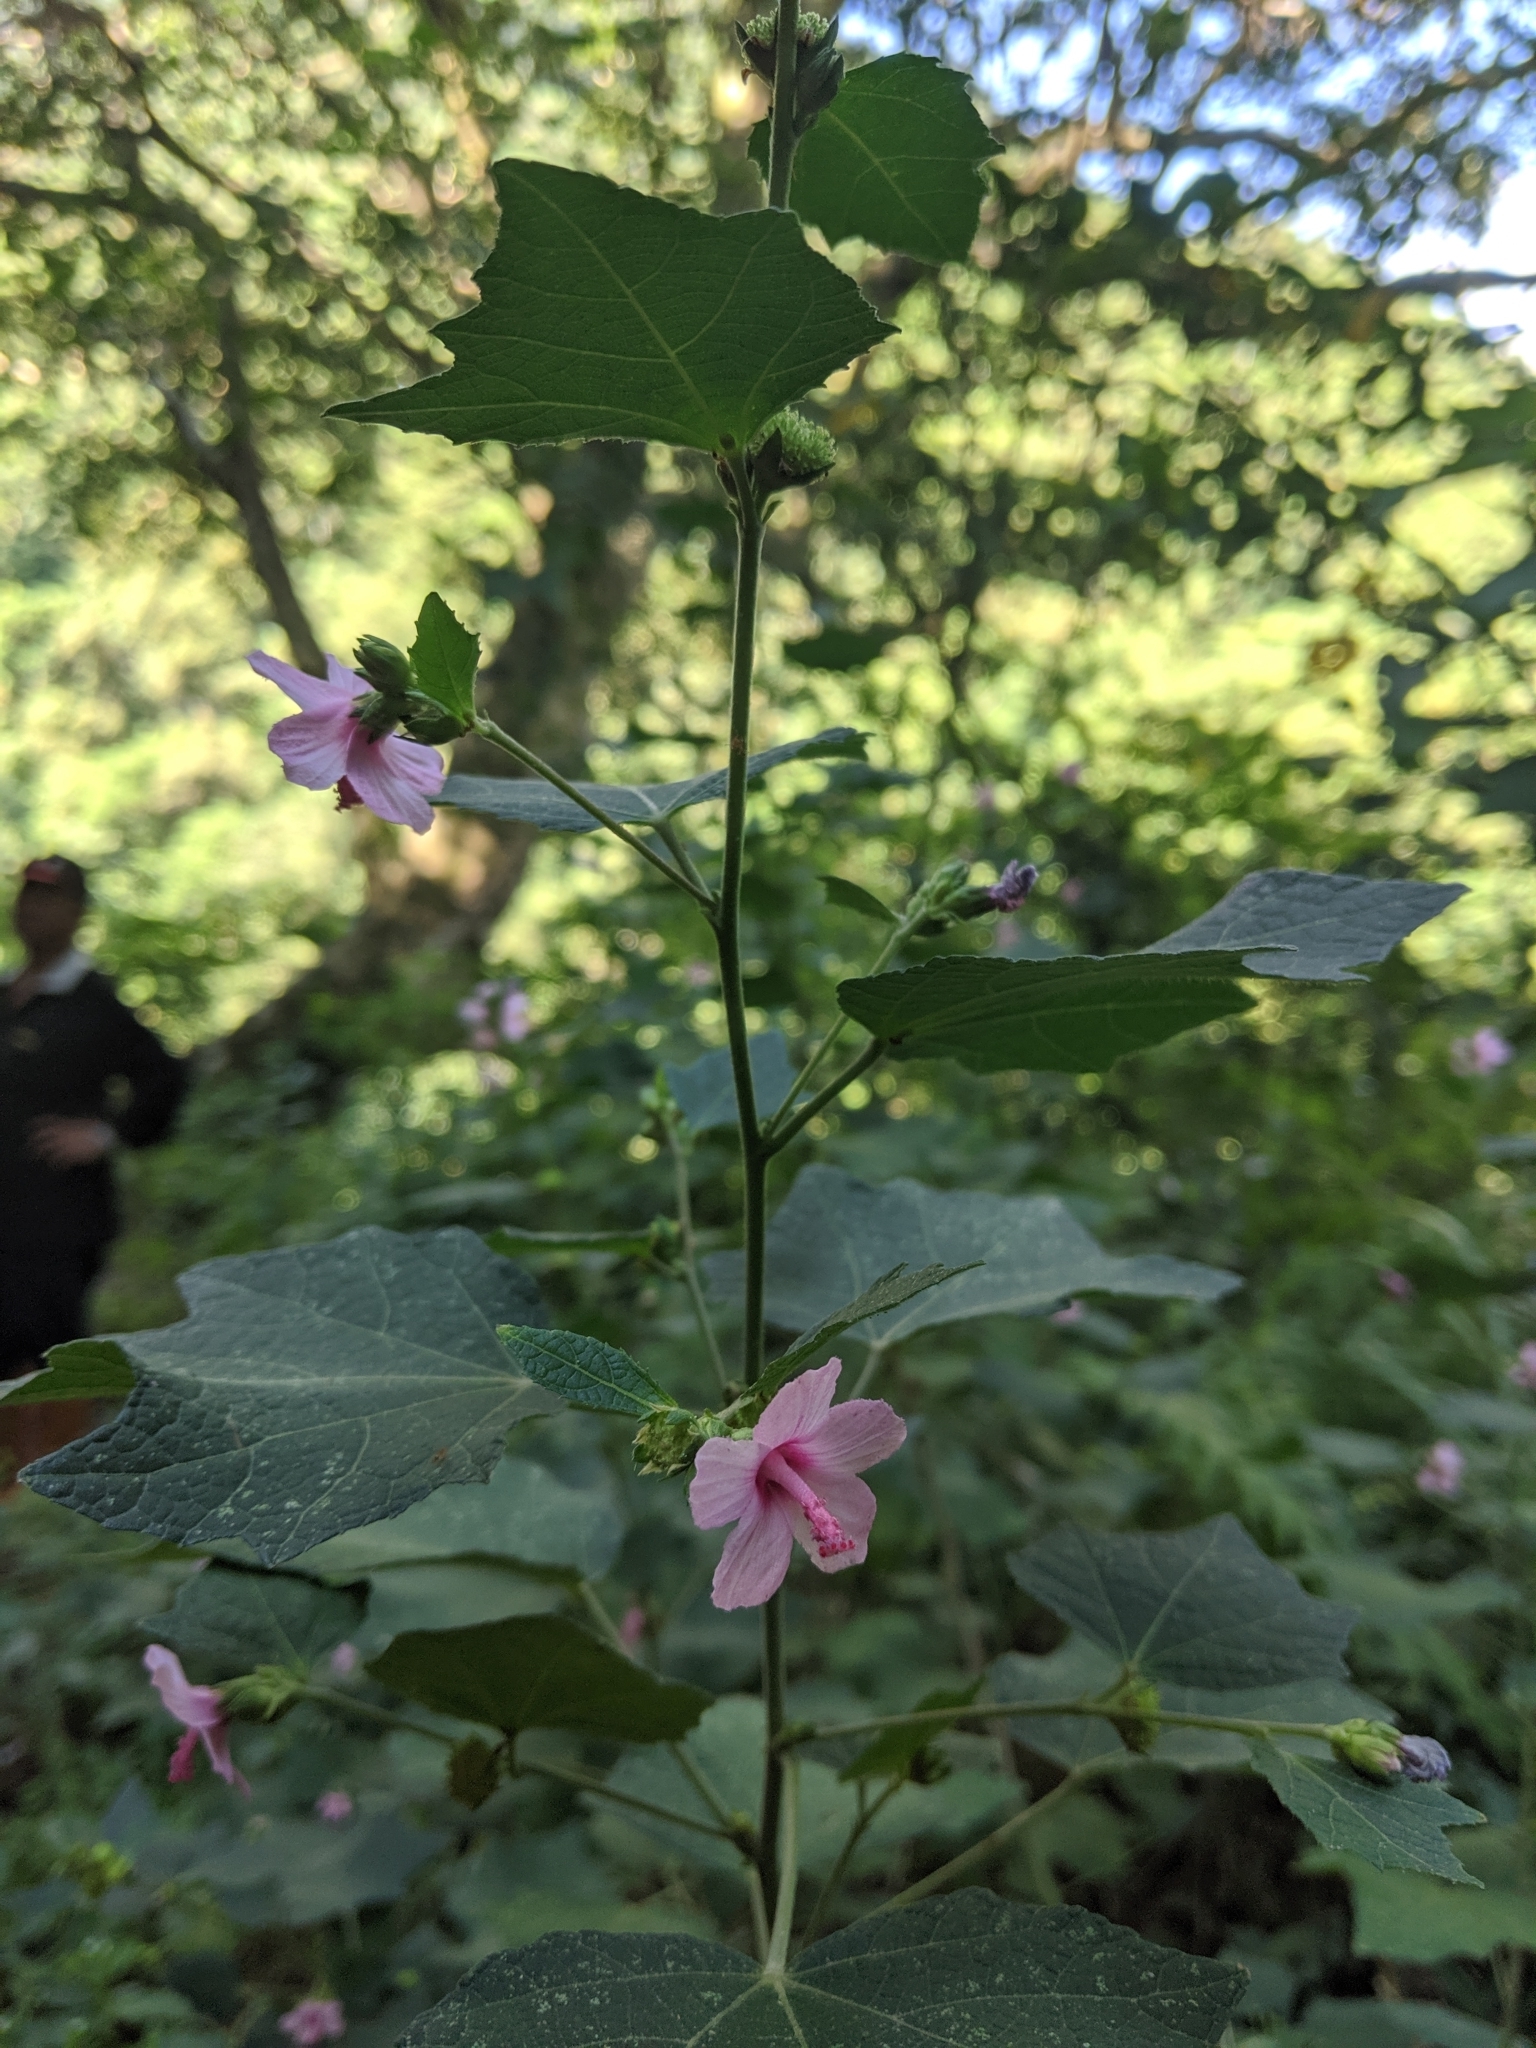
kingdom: Plantae
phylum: Tracheophyta
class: Magnoliopsida
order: Malvales
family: Malvaceae
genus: Urena
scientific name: Urena lobata
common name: Caesarweed
